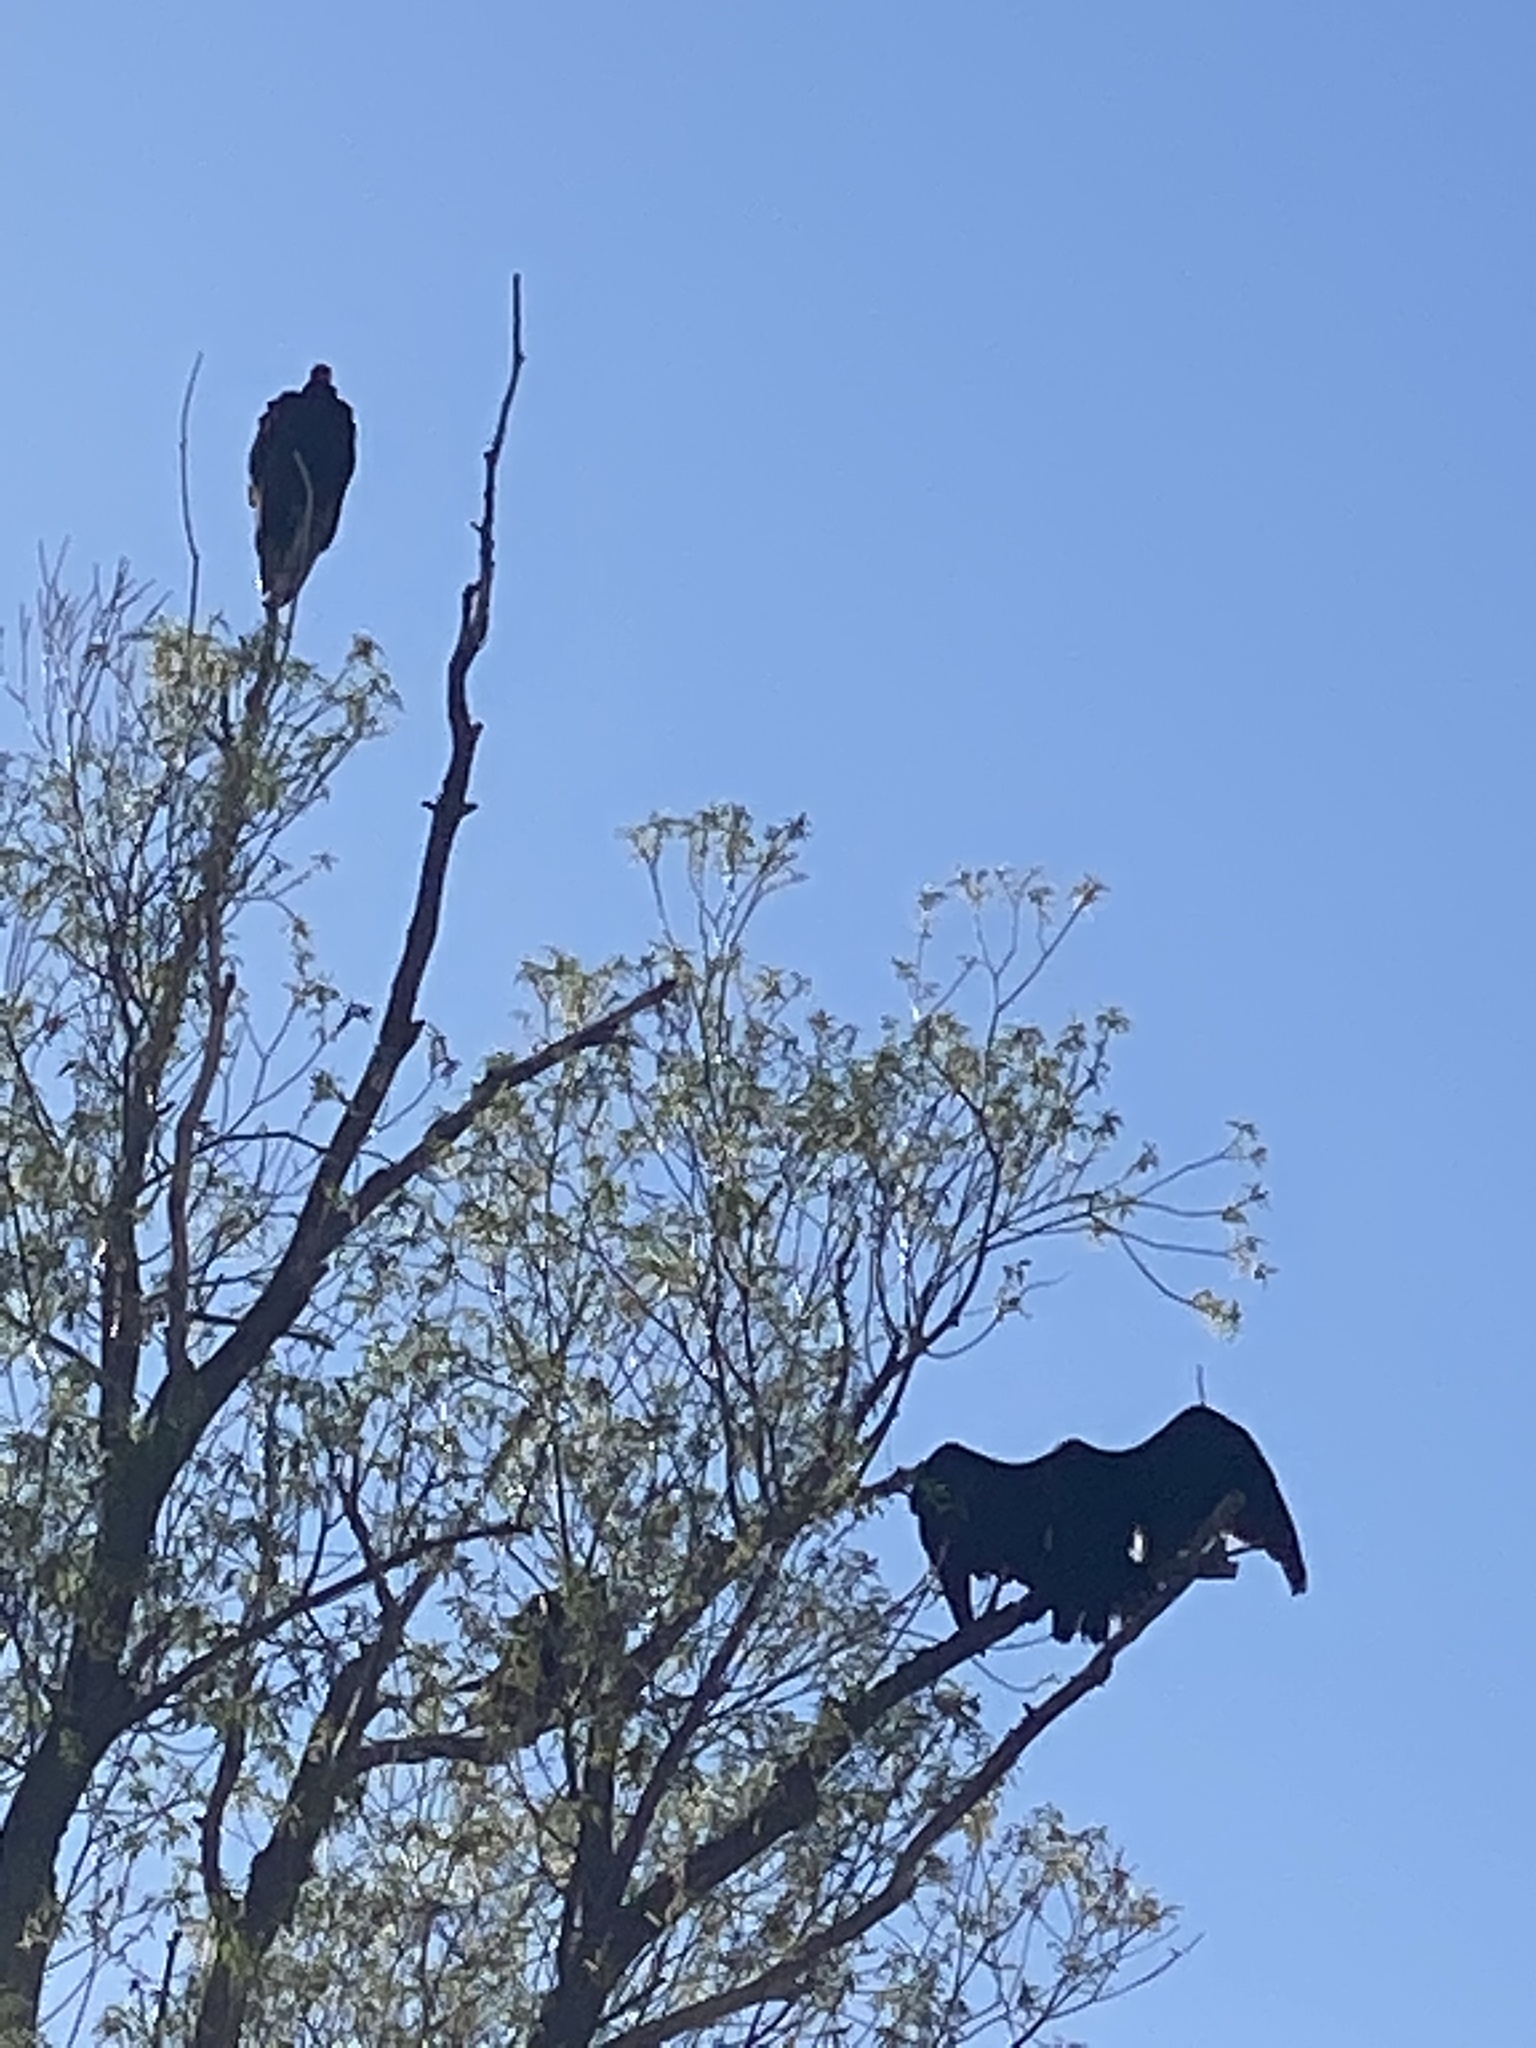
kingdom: Animalia
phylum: Chordata
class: Aves
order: Accipitriformes
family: Cathartidae
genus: Cathartes
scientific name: Cathartes aura
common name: Turkey vulture
